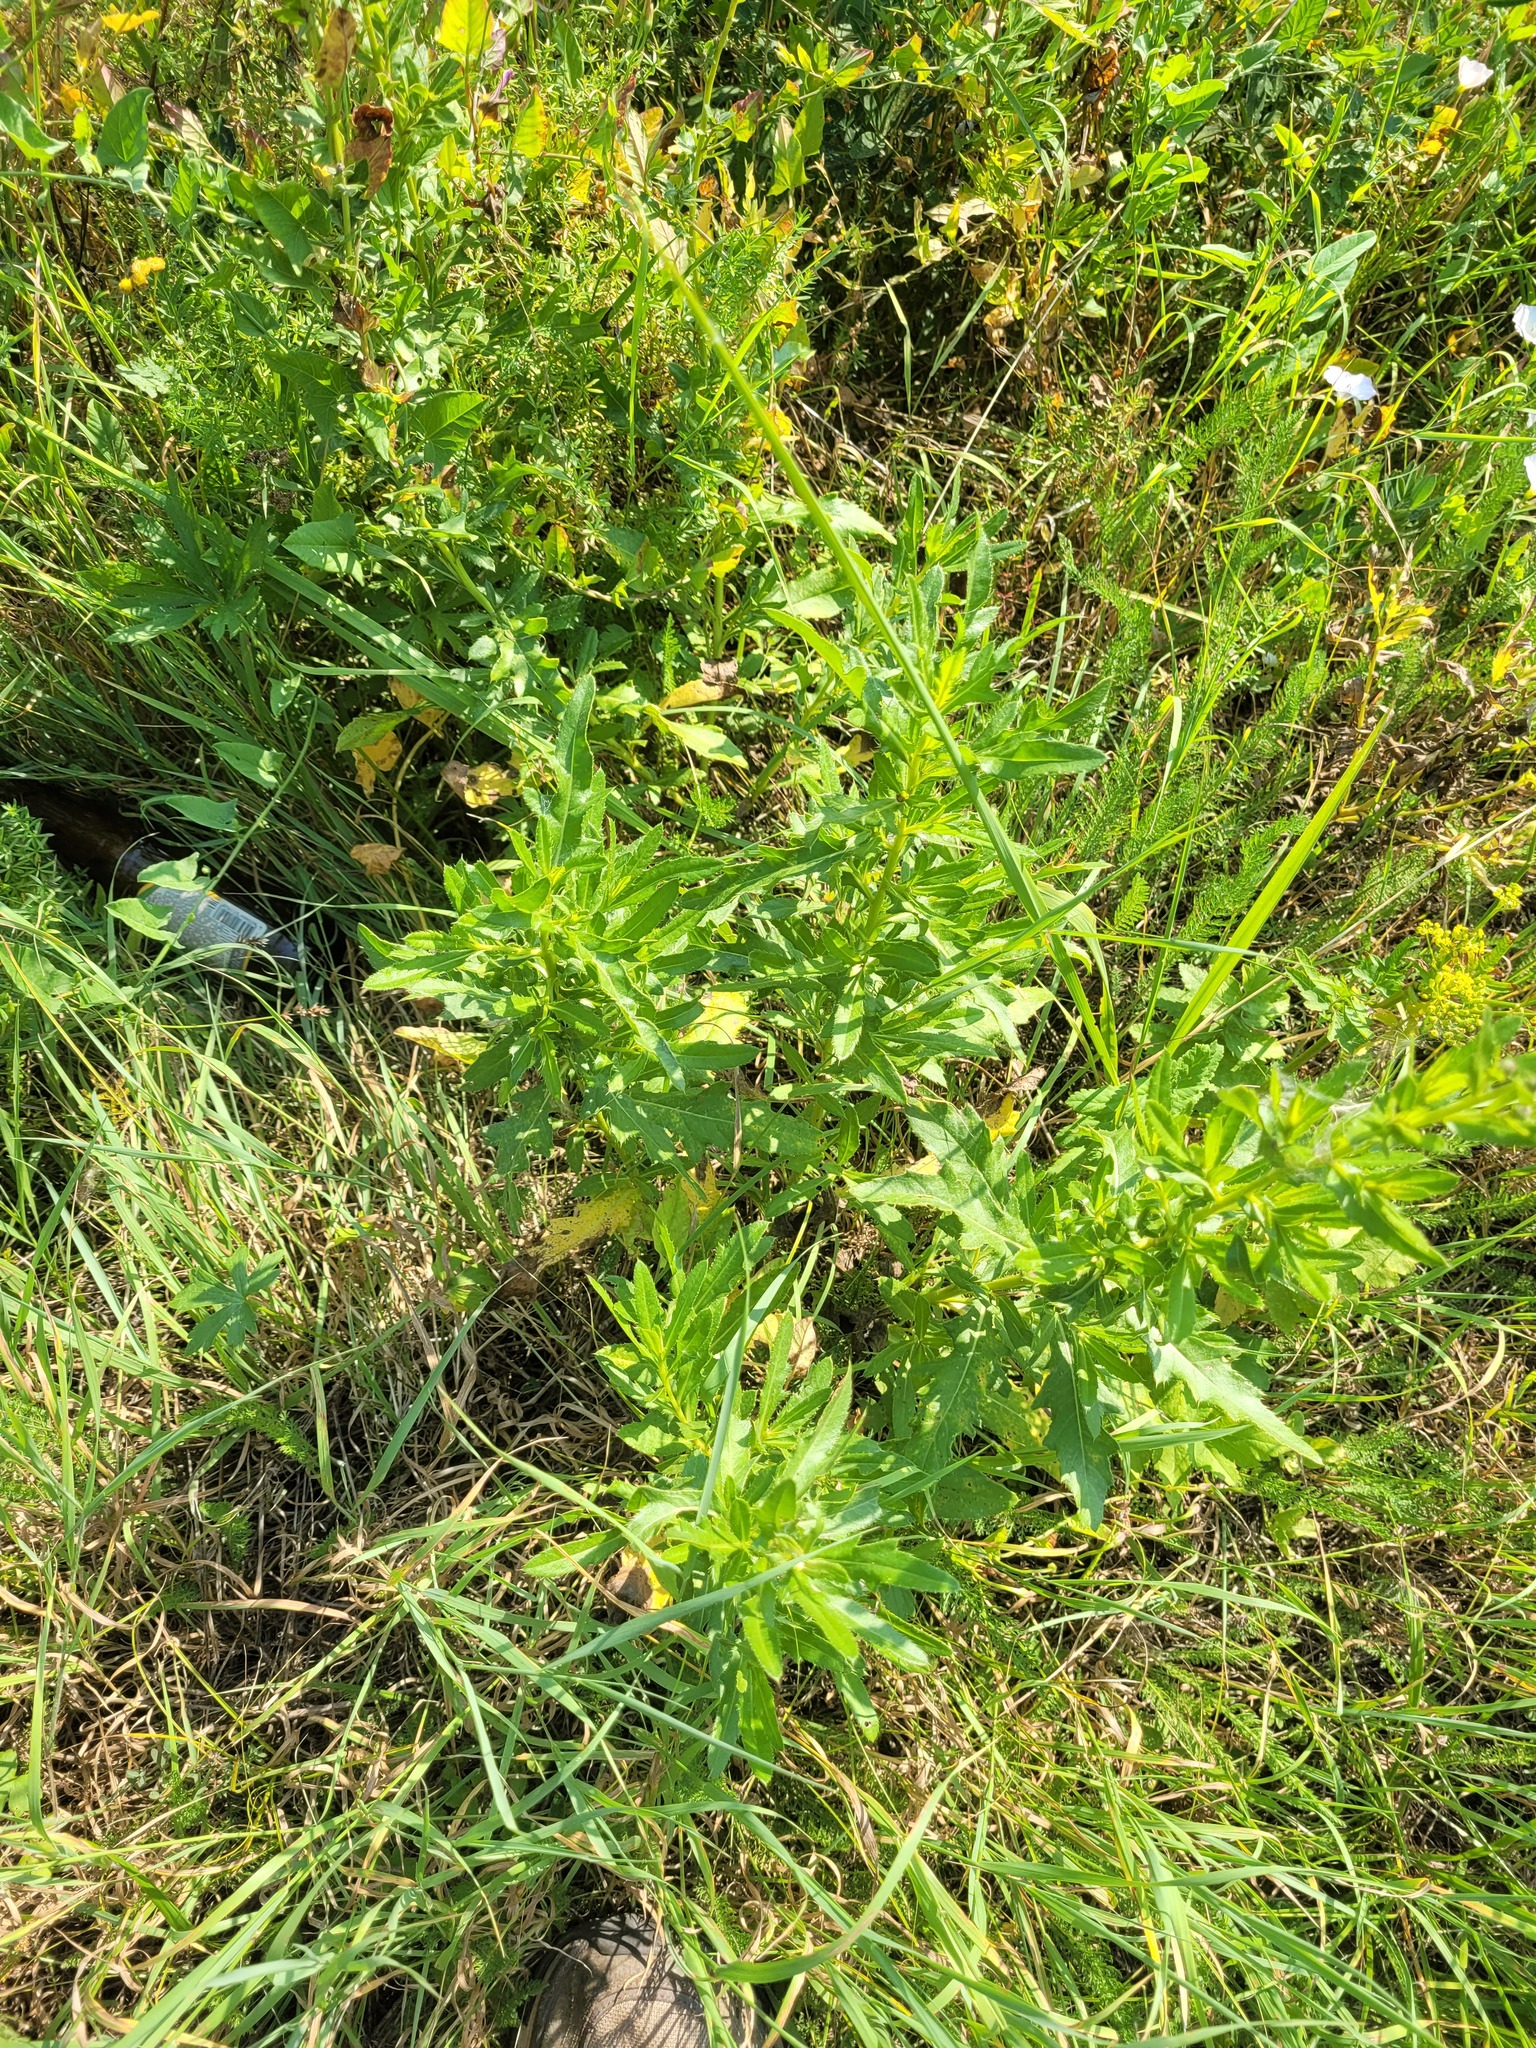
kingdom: Plantae
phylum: Tracheophyta
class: Magnoliopsida
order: Asterales
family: Asteraceae
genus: Cirsium
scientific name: Cirsium arvense
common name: Creeping thistle
